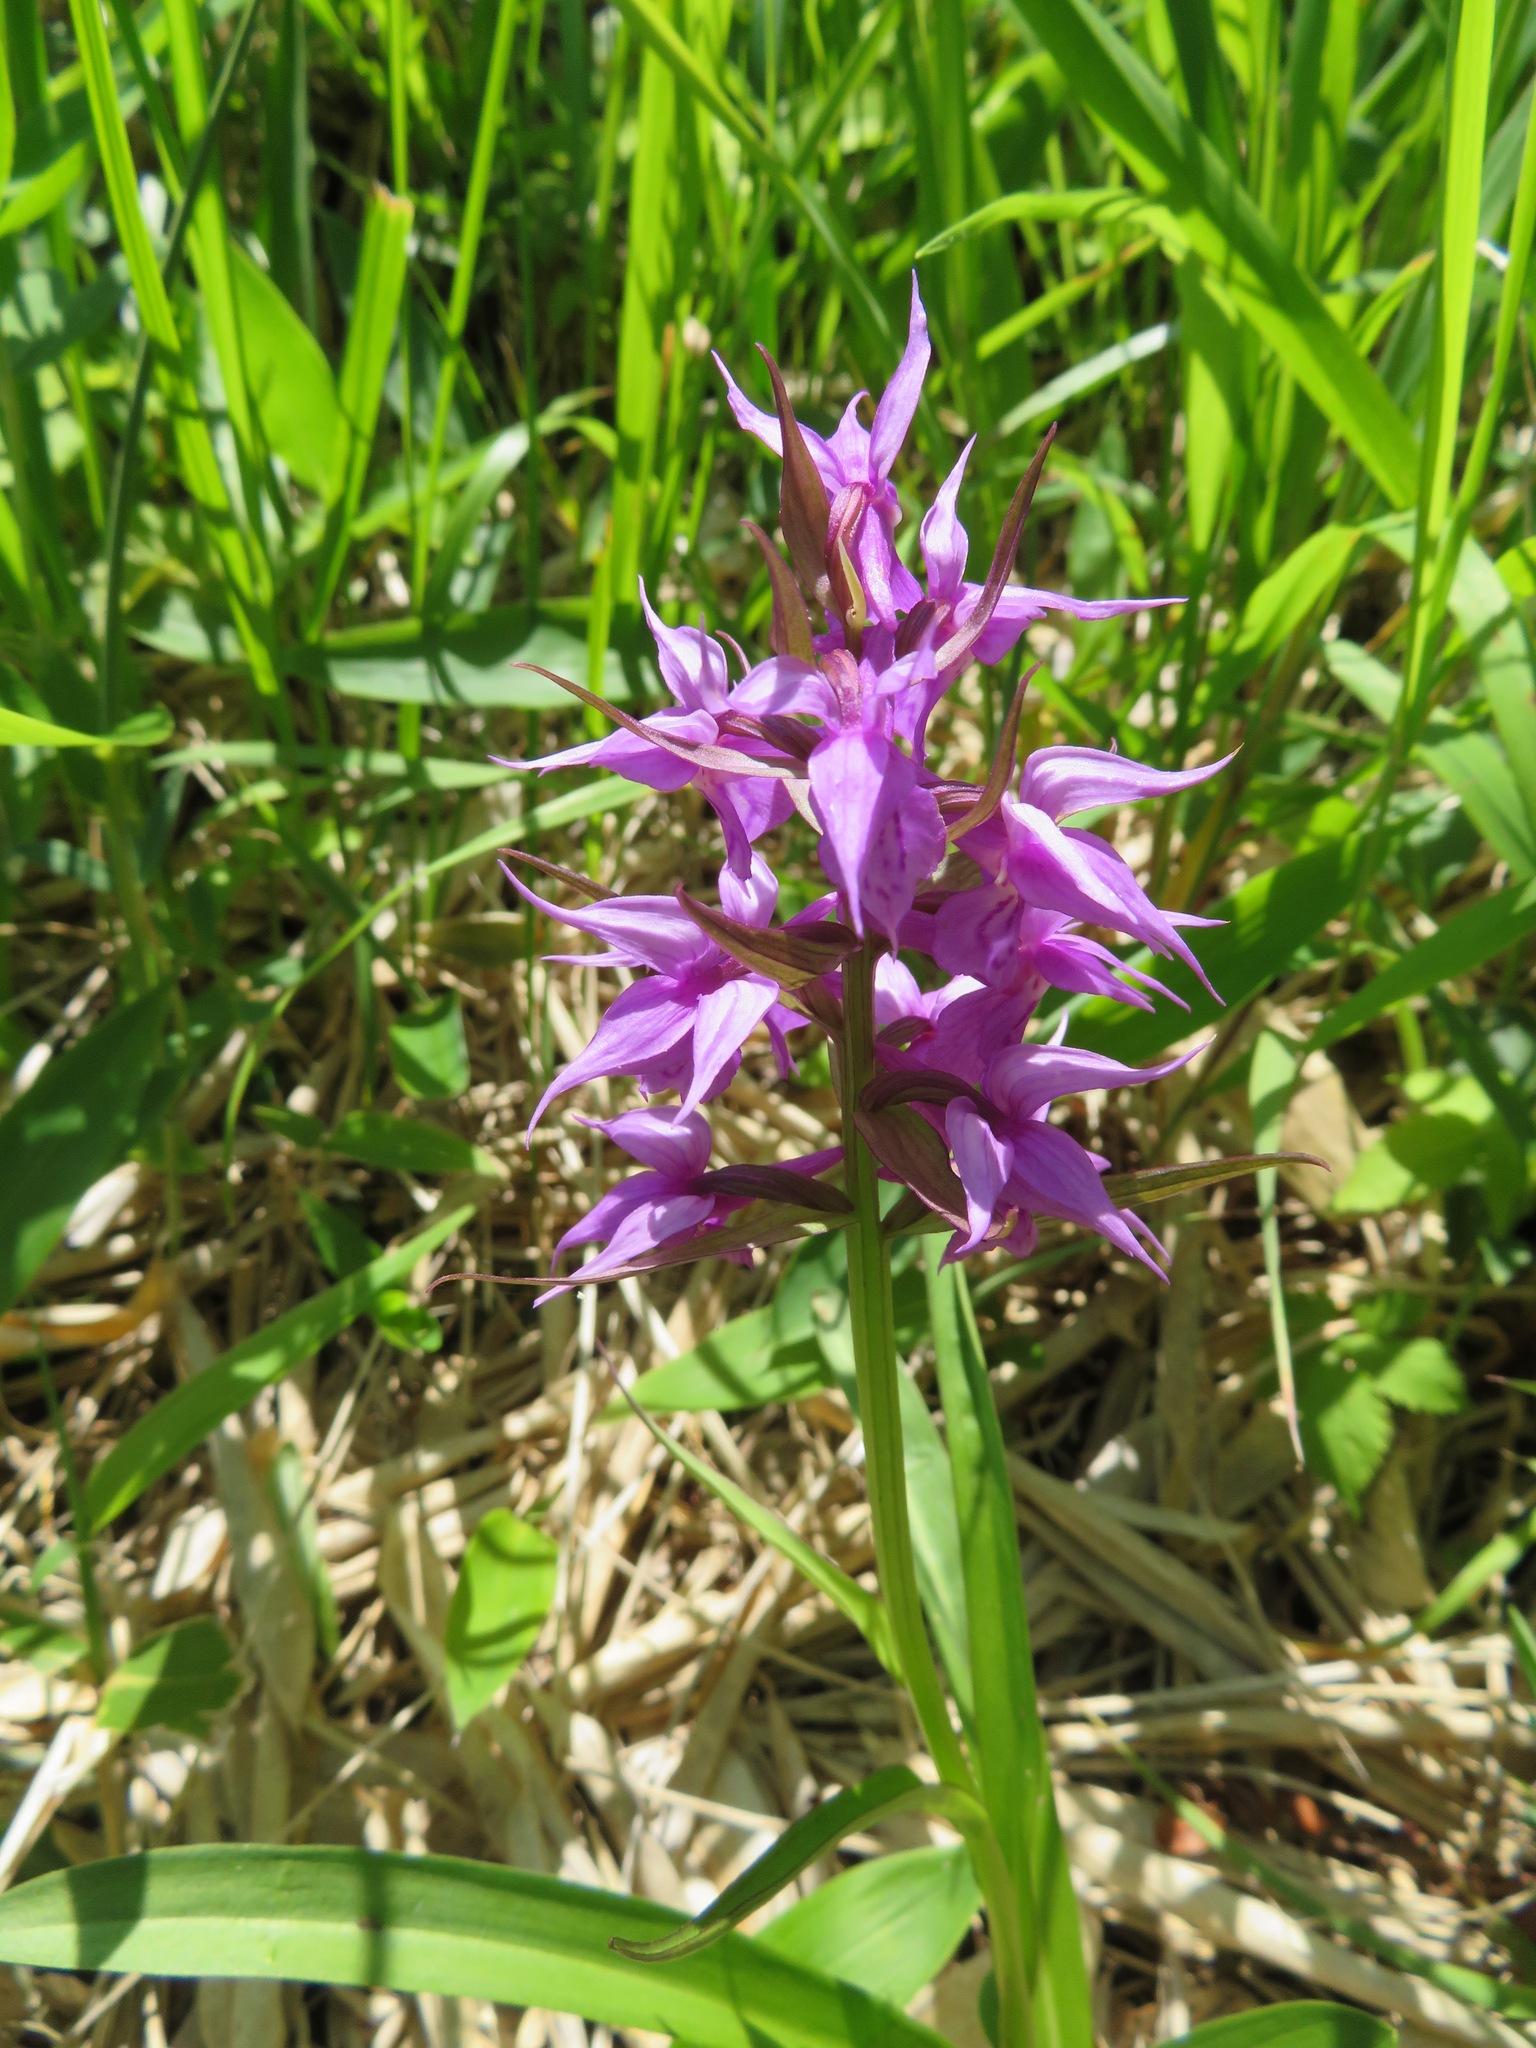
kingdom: Plantae
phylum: Tracheophyta
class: Liliopsida
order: Asparagales
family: Orchidaceae
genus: Dactylorhiza
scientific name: Dactylorhiza aristata
